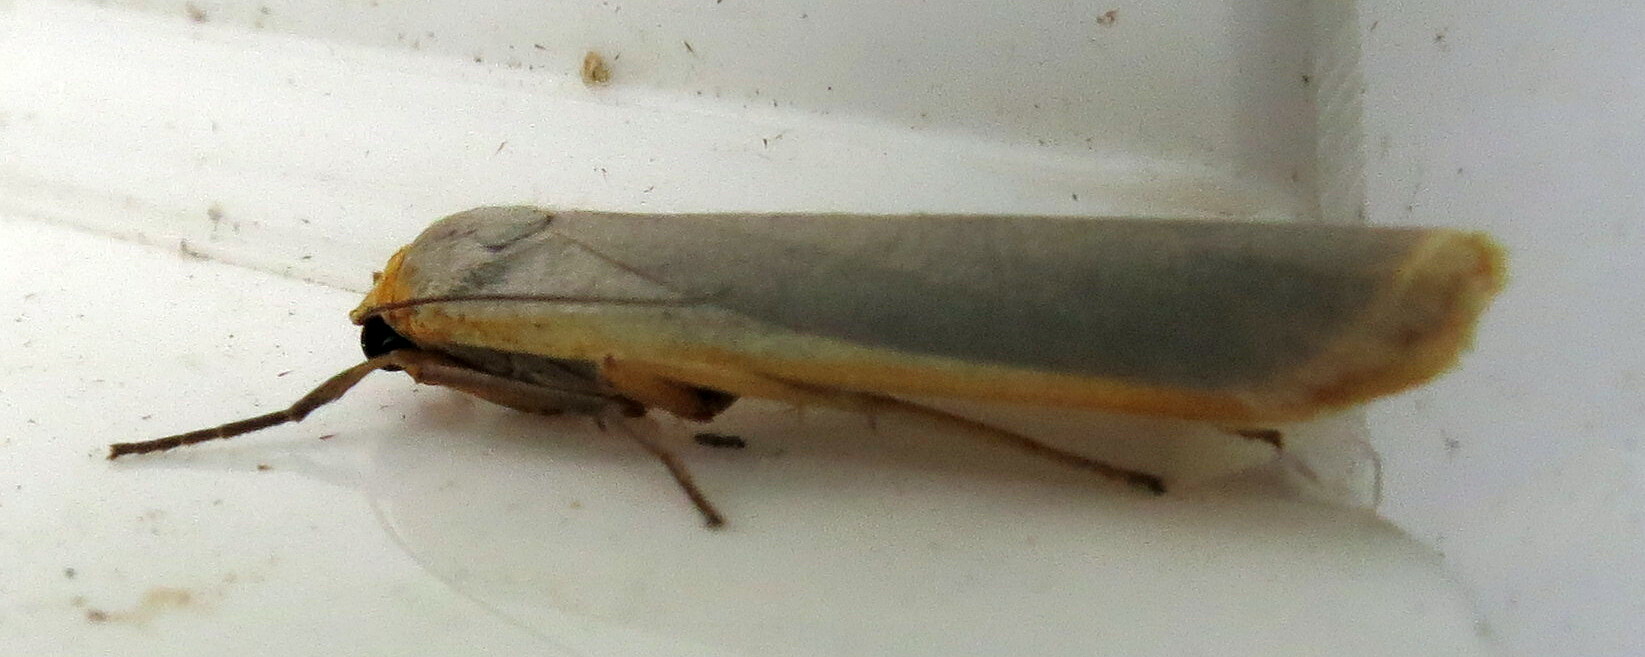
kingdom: Animalia
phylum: Arthropoda
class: Insecta
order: Lepidoptera
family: Erebidae
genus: Manulea
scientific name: Manulea complana
